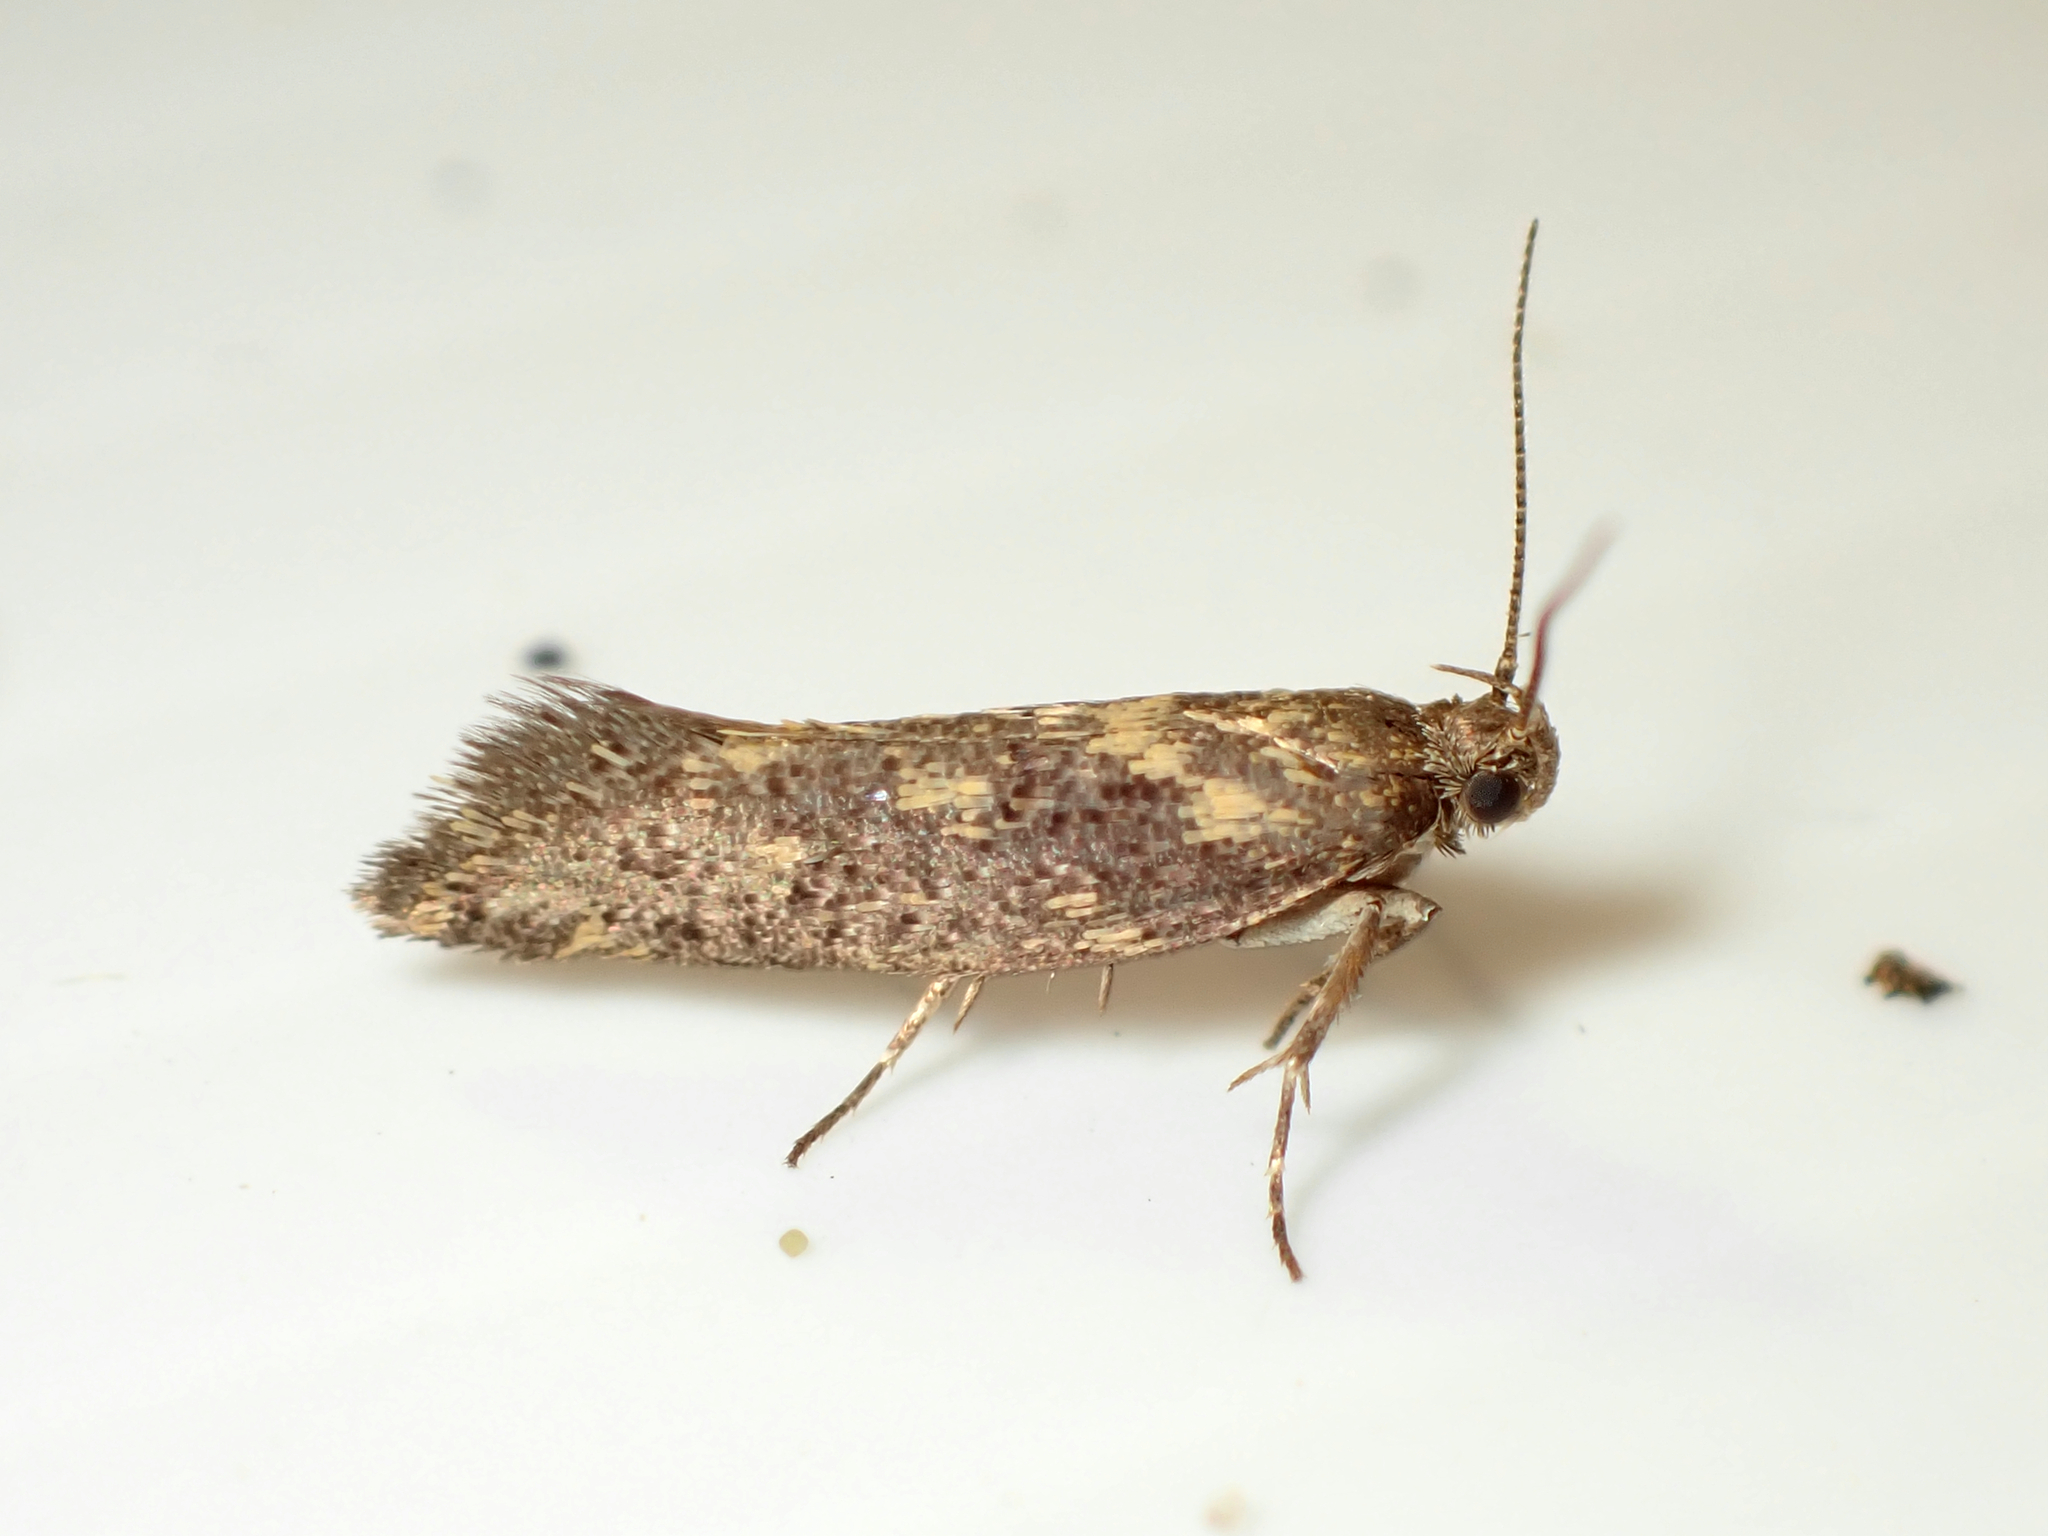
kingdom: Animalia
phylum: Arthropoda
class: Insecta
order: Lepidoptera
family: Oecophoridae
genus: Tingena
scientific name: Tingena siderodeta
